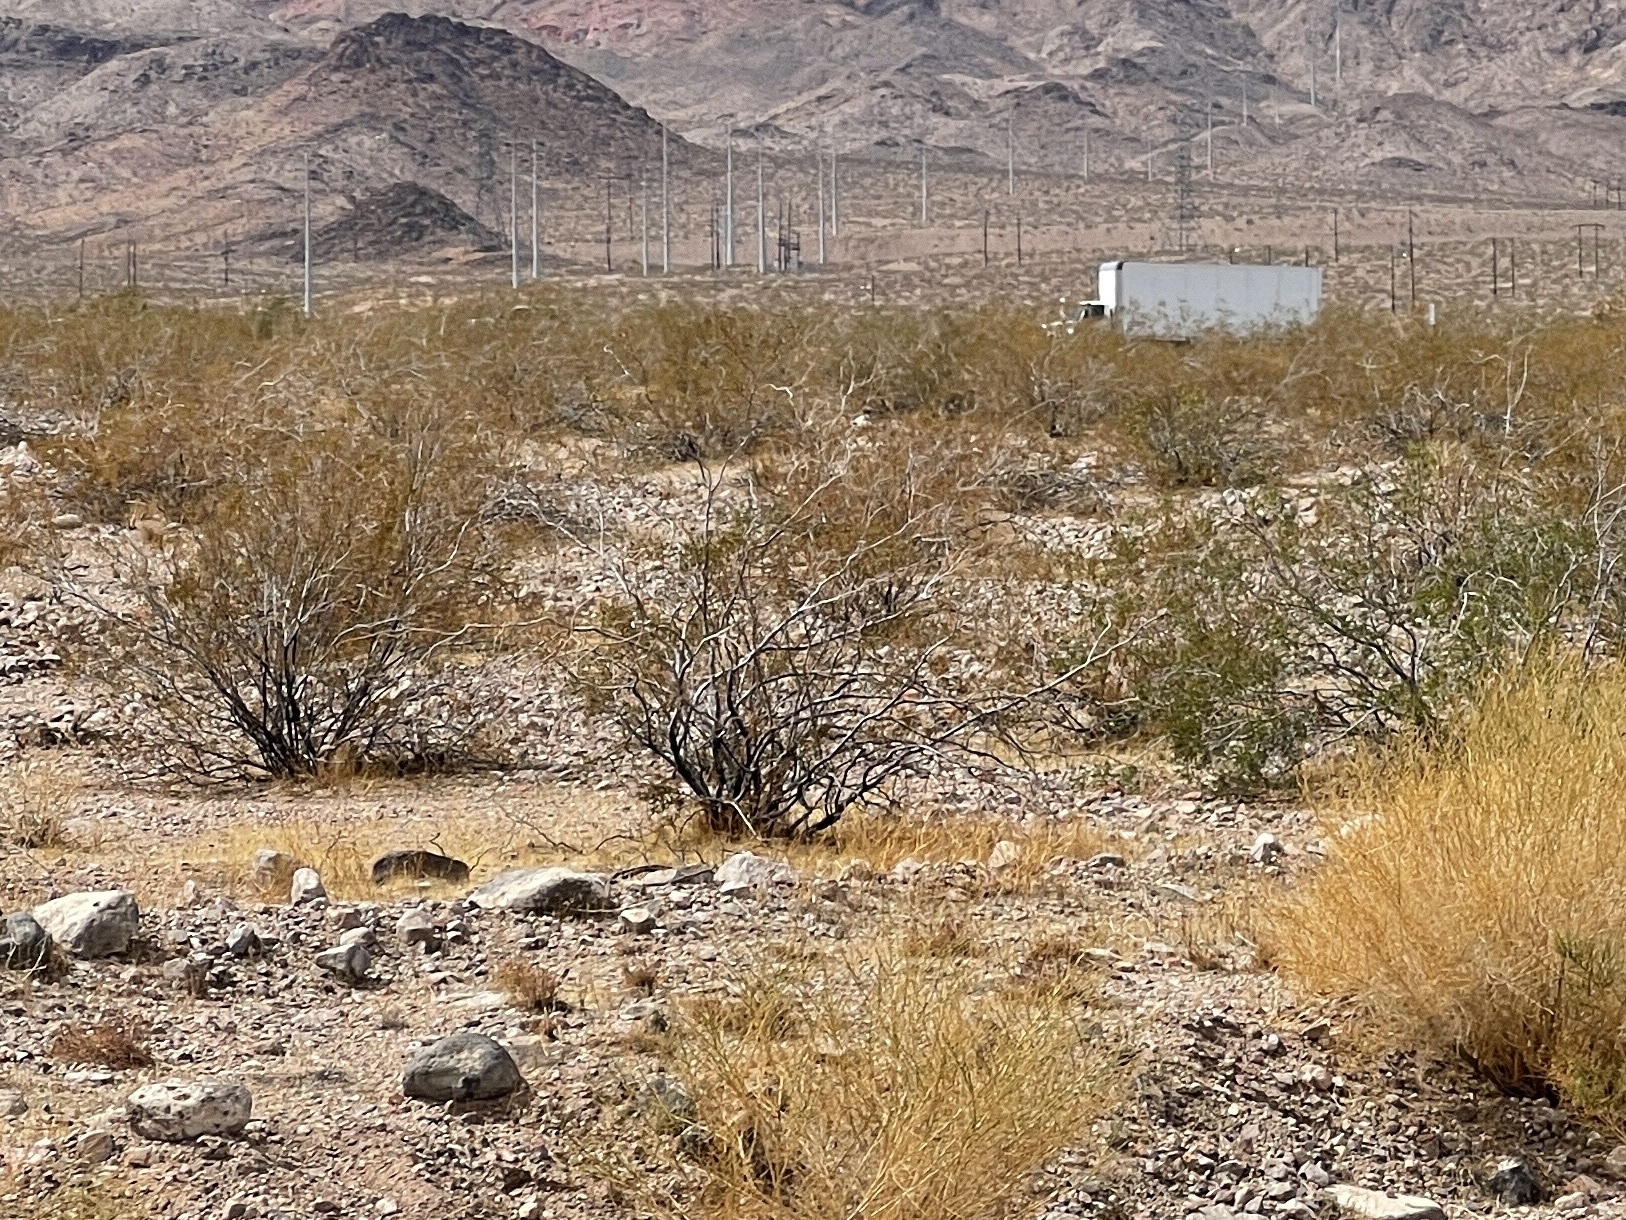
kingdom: Plantae
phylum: Tracheophyta
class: Magnoliopsida
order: Zygophyllales
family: Zygophyllaceae
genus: Larrea
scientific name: Larrea tridentata
